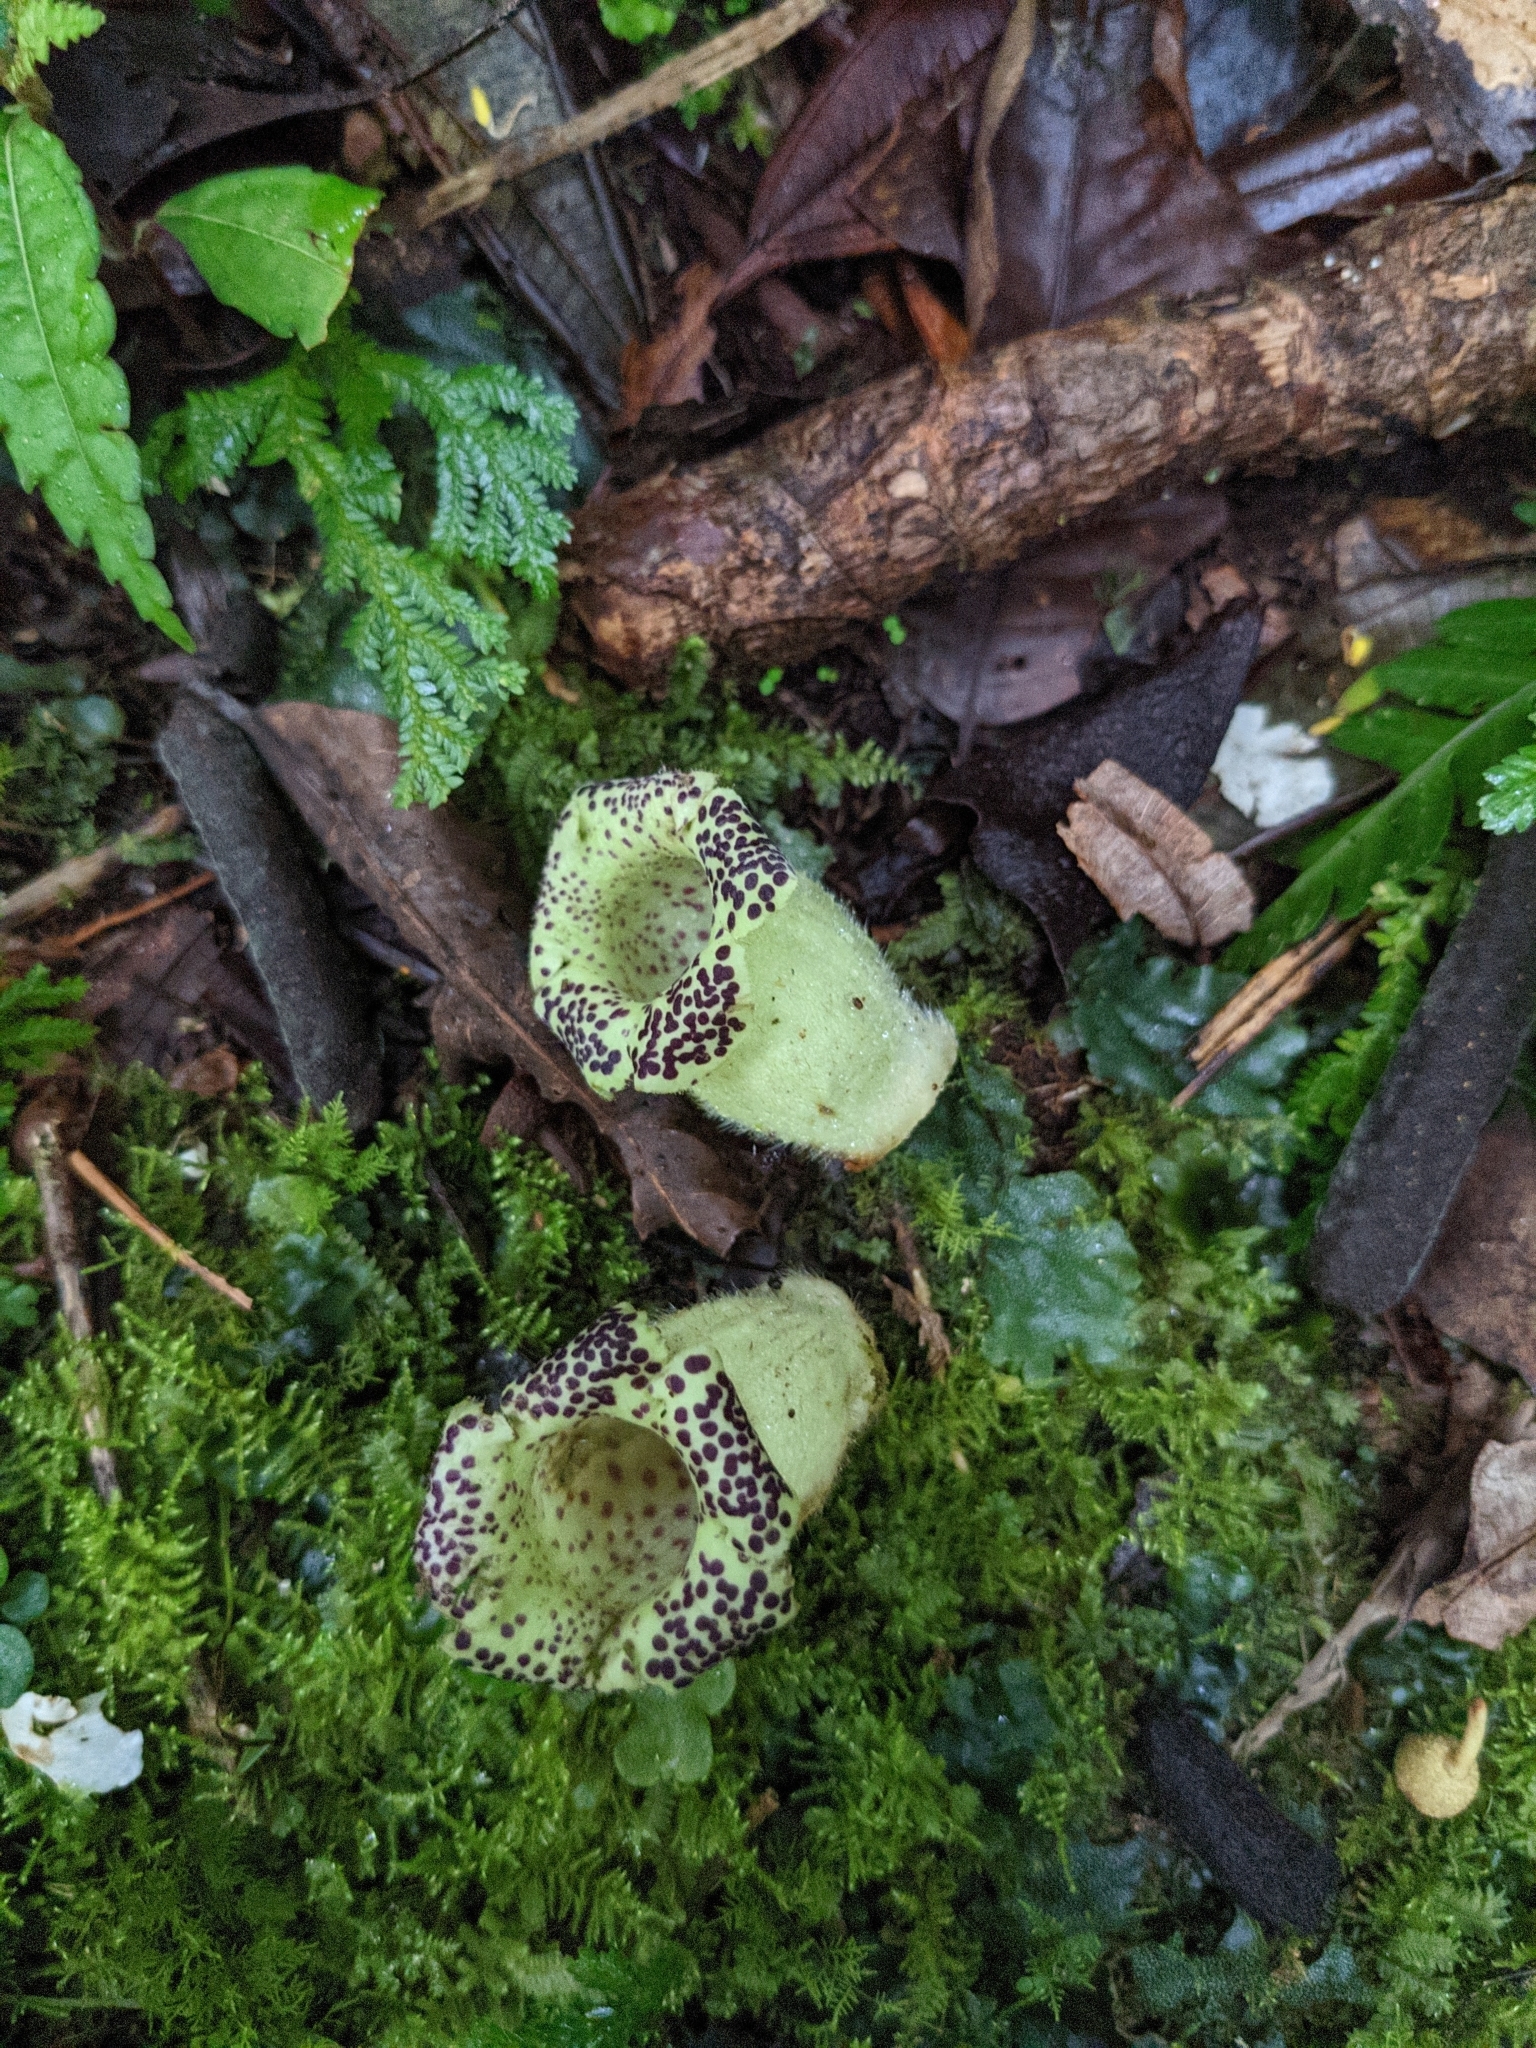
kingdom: Plantae
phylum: Tracheophyta
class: Magnoliopsida
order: Lamiales
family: Gesneriaceae
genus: Kohleria
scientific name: Kohleria tigridia
